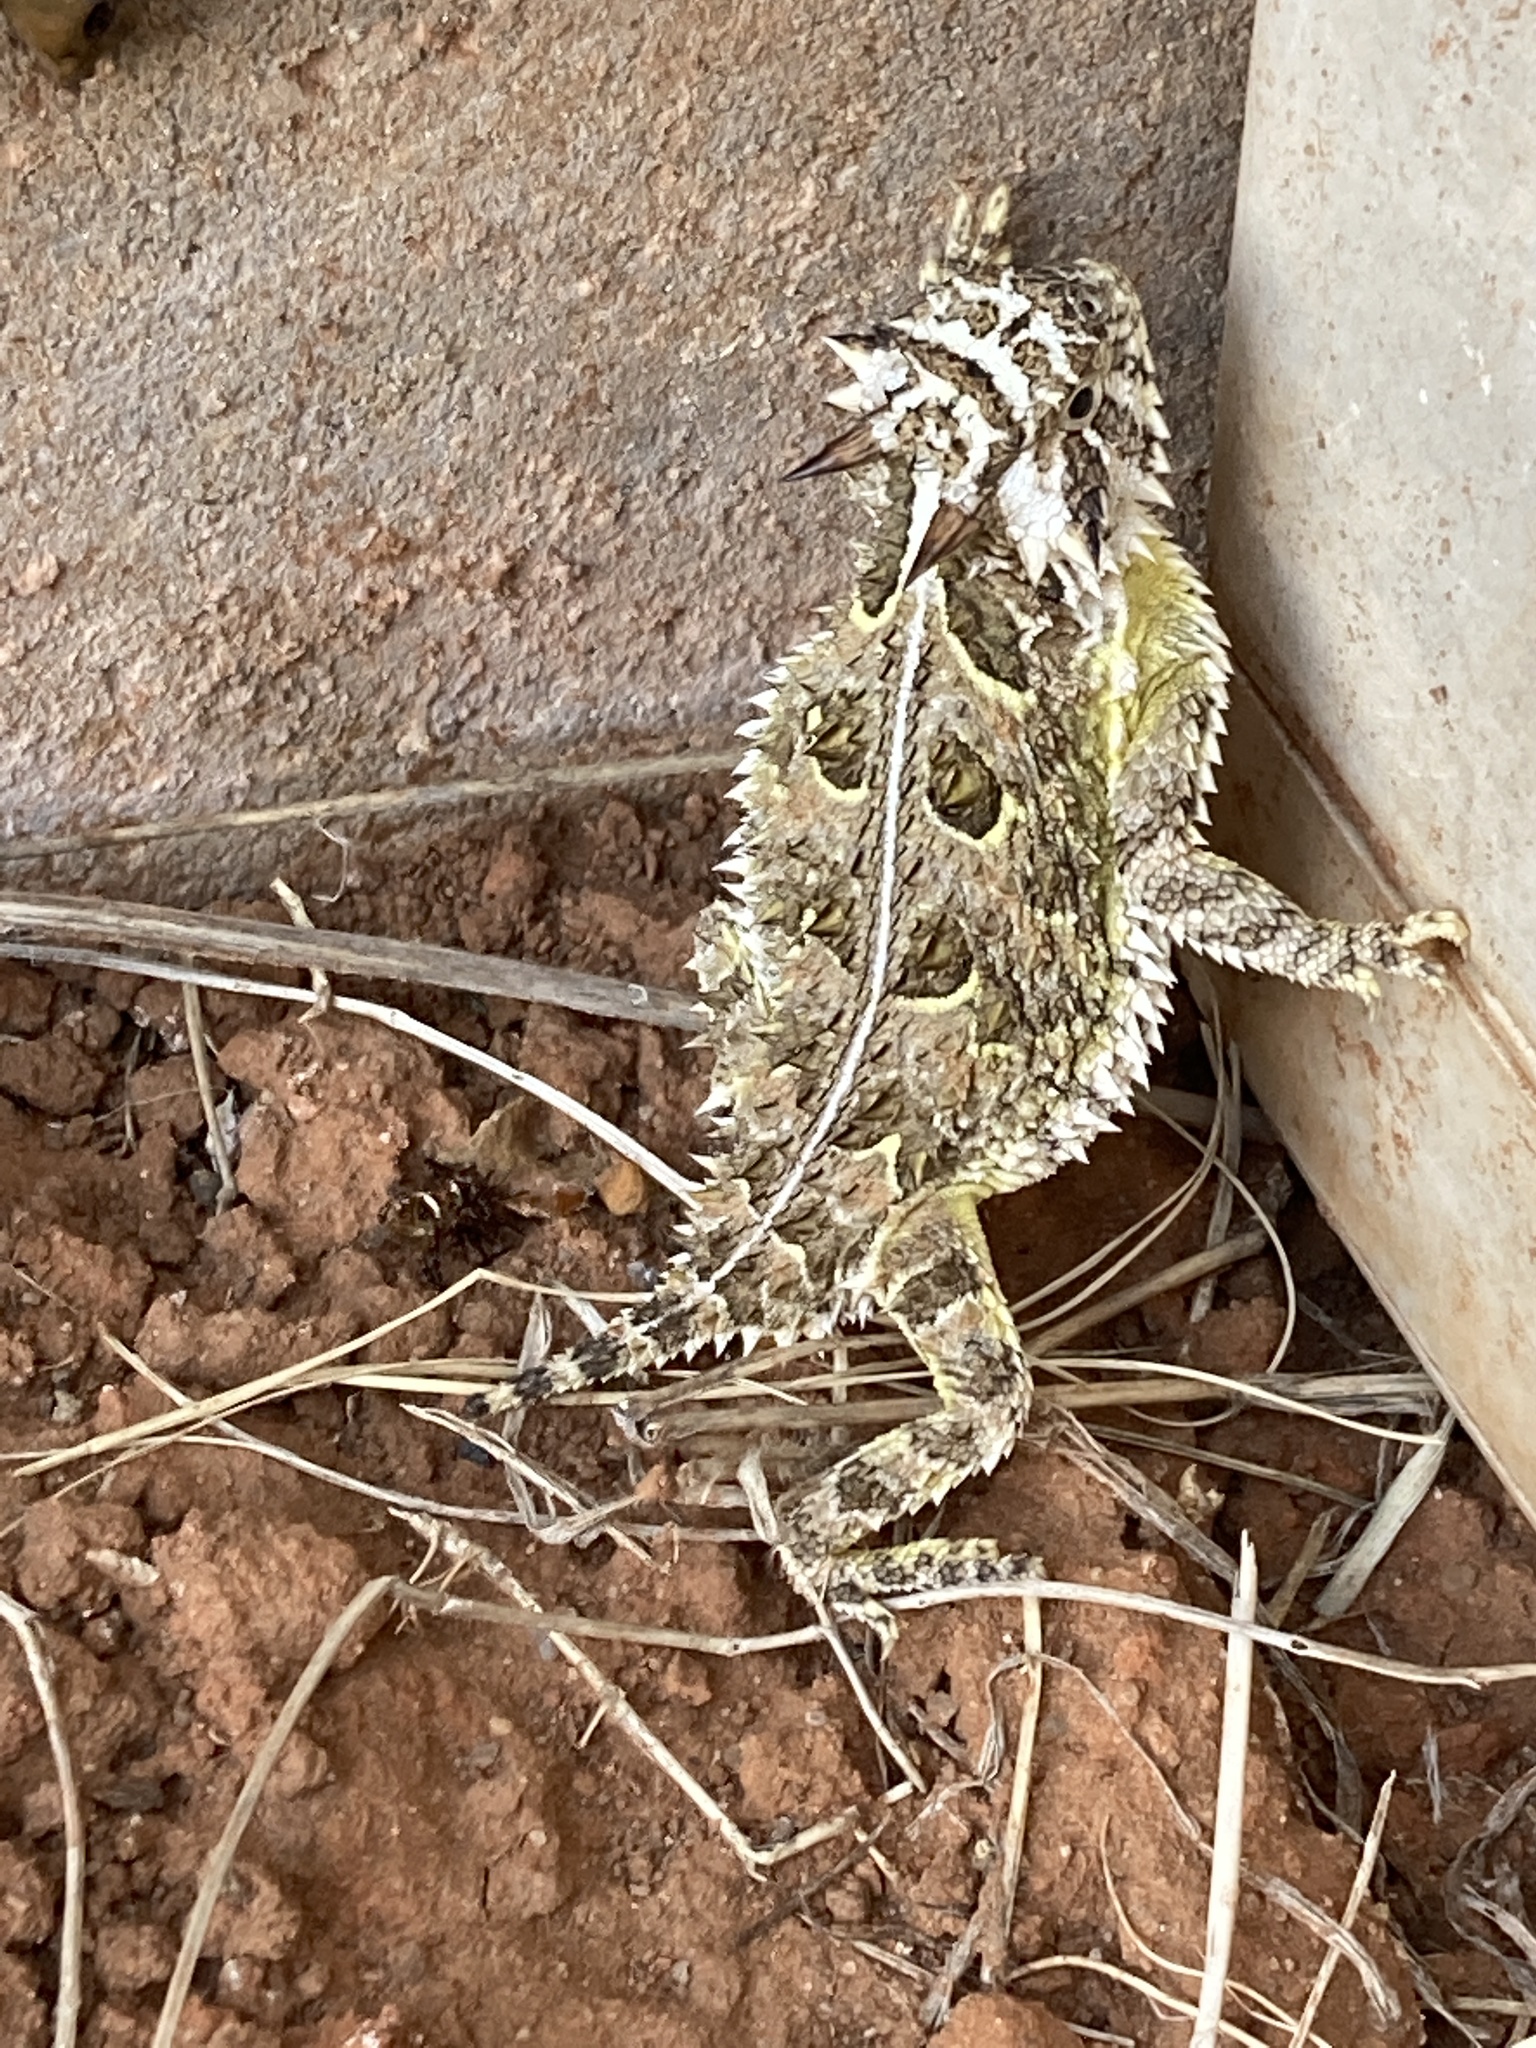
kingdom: Animalia
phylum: Chordata
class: Squamata
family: Phrynosomatidae
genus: Phrynosoma
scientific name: Phrynosoma cornutum
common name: Texas horned lizard
